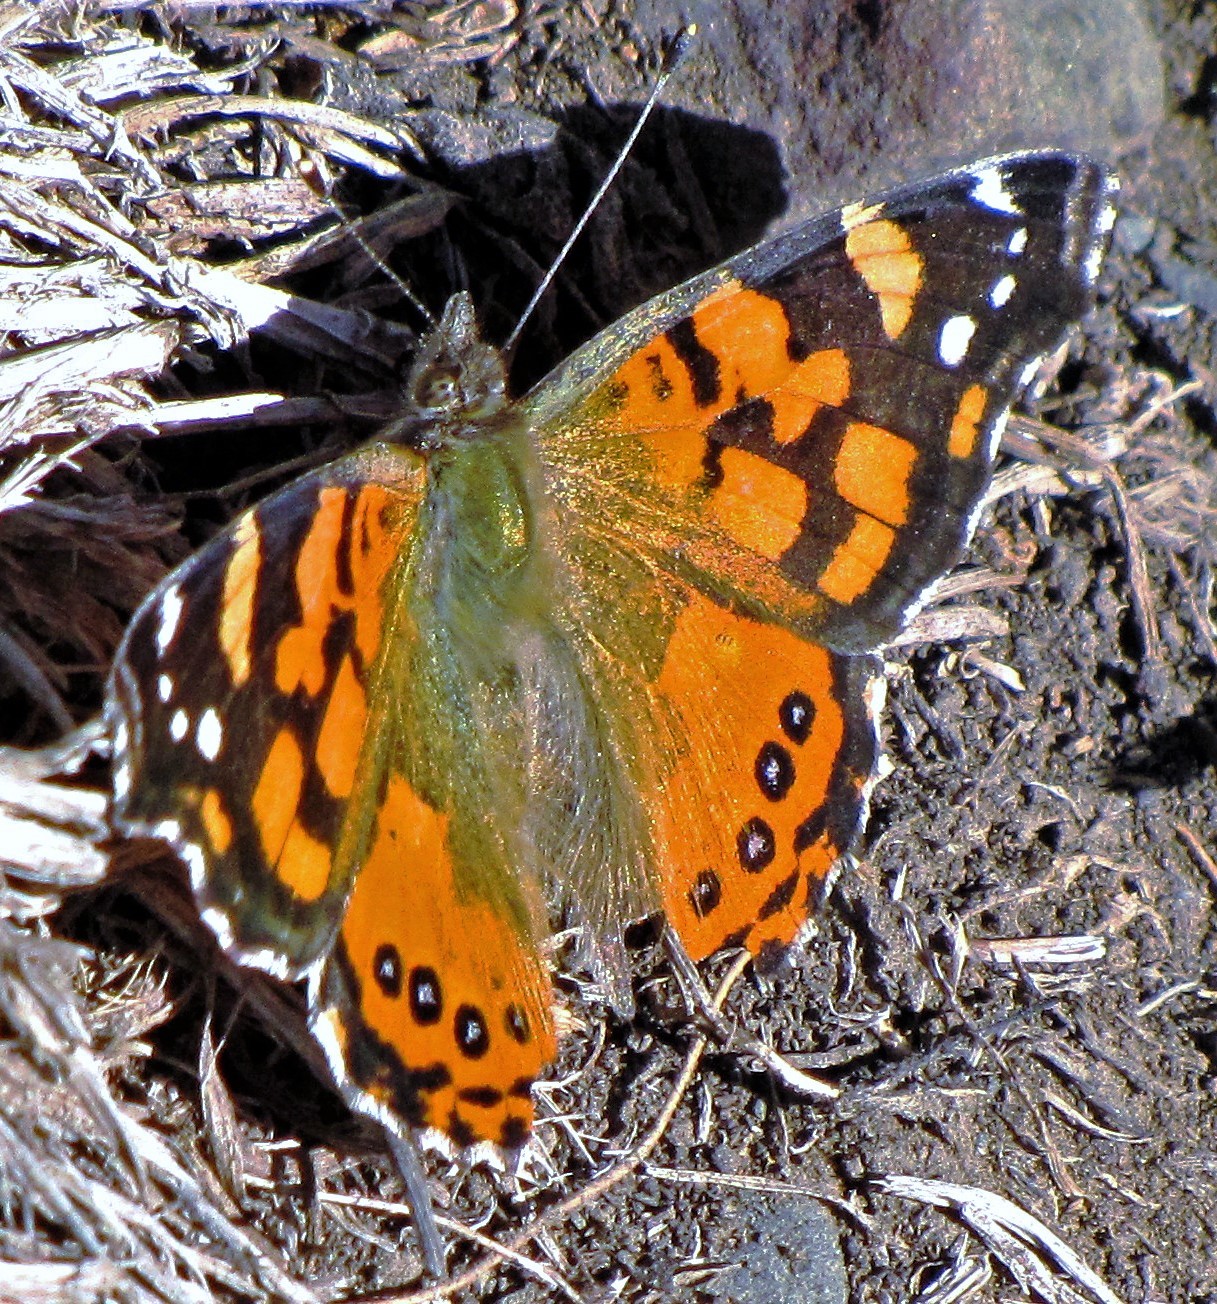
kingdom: Animalia
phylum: Arthropoda
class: Insecta
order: Lepidoptera
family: Nymphalidae
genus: Vanessa
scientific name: Vanessa carye
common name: Subtropical lady
